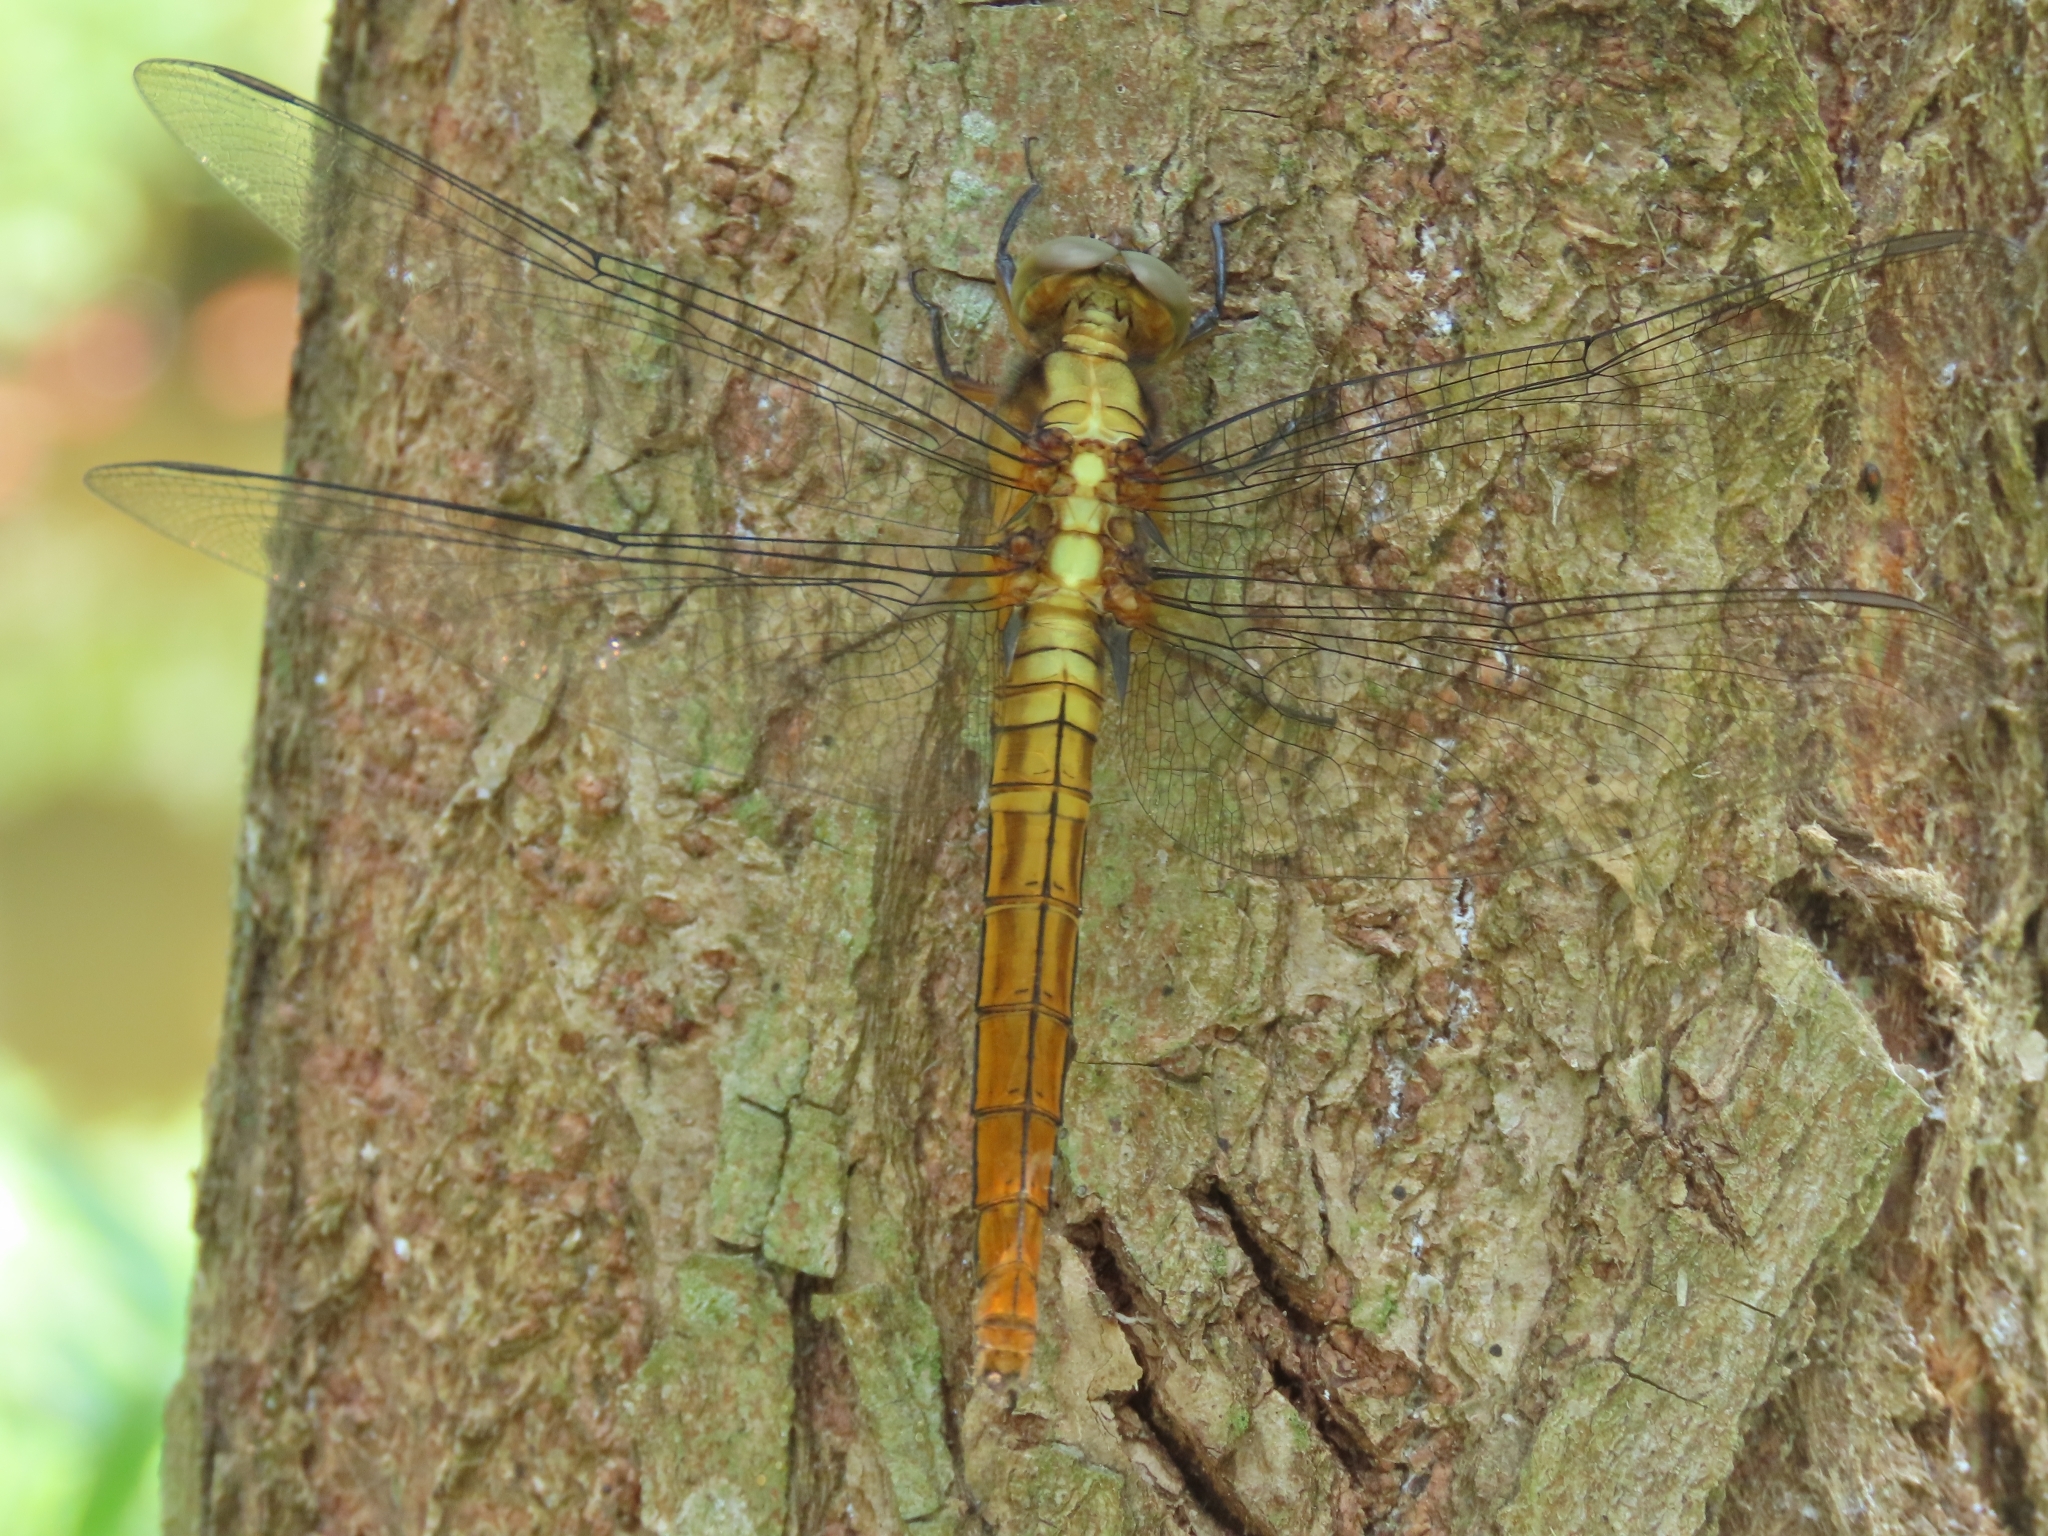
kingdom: Animalia
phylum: Arthropoda
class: Insecta
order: Odonata
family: Libellulidae
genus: Orthetrum
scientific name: Orthetrum pruinosum
